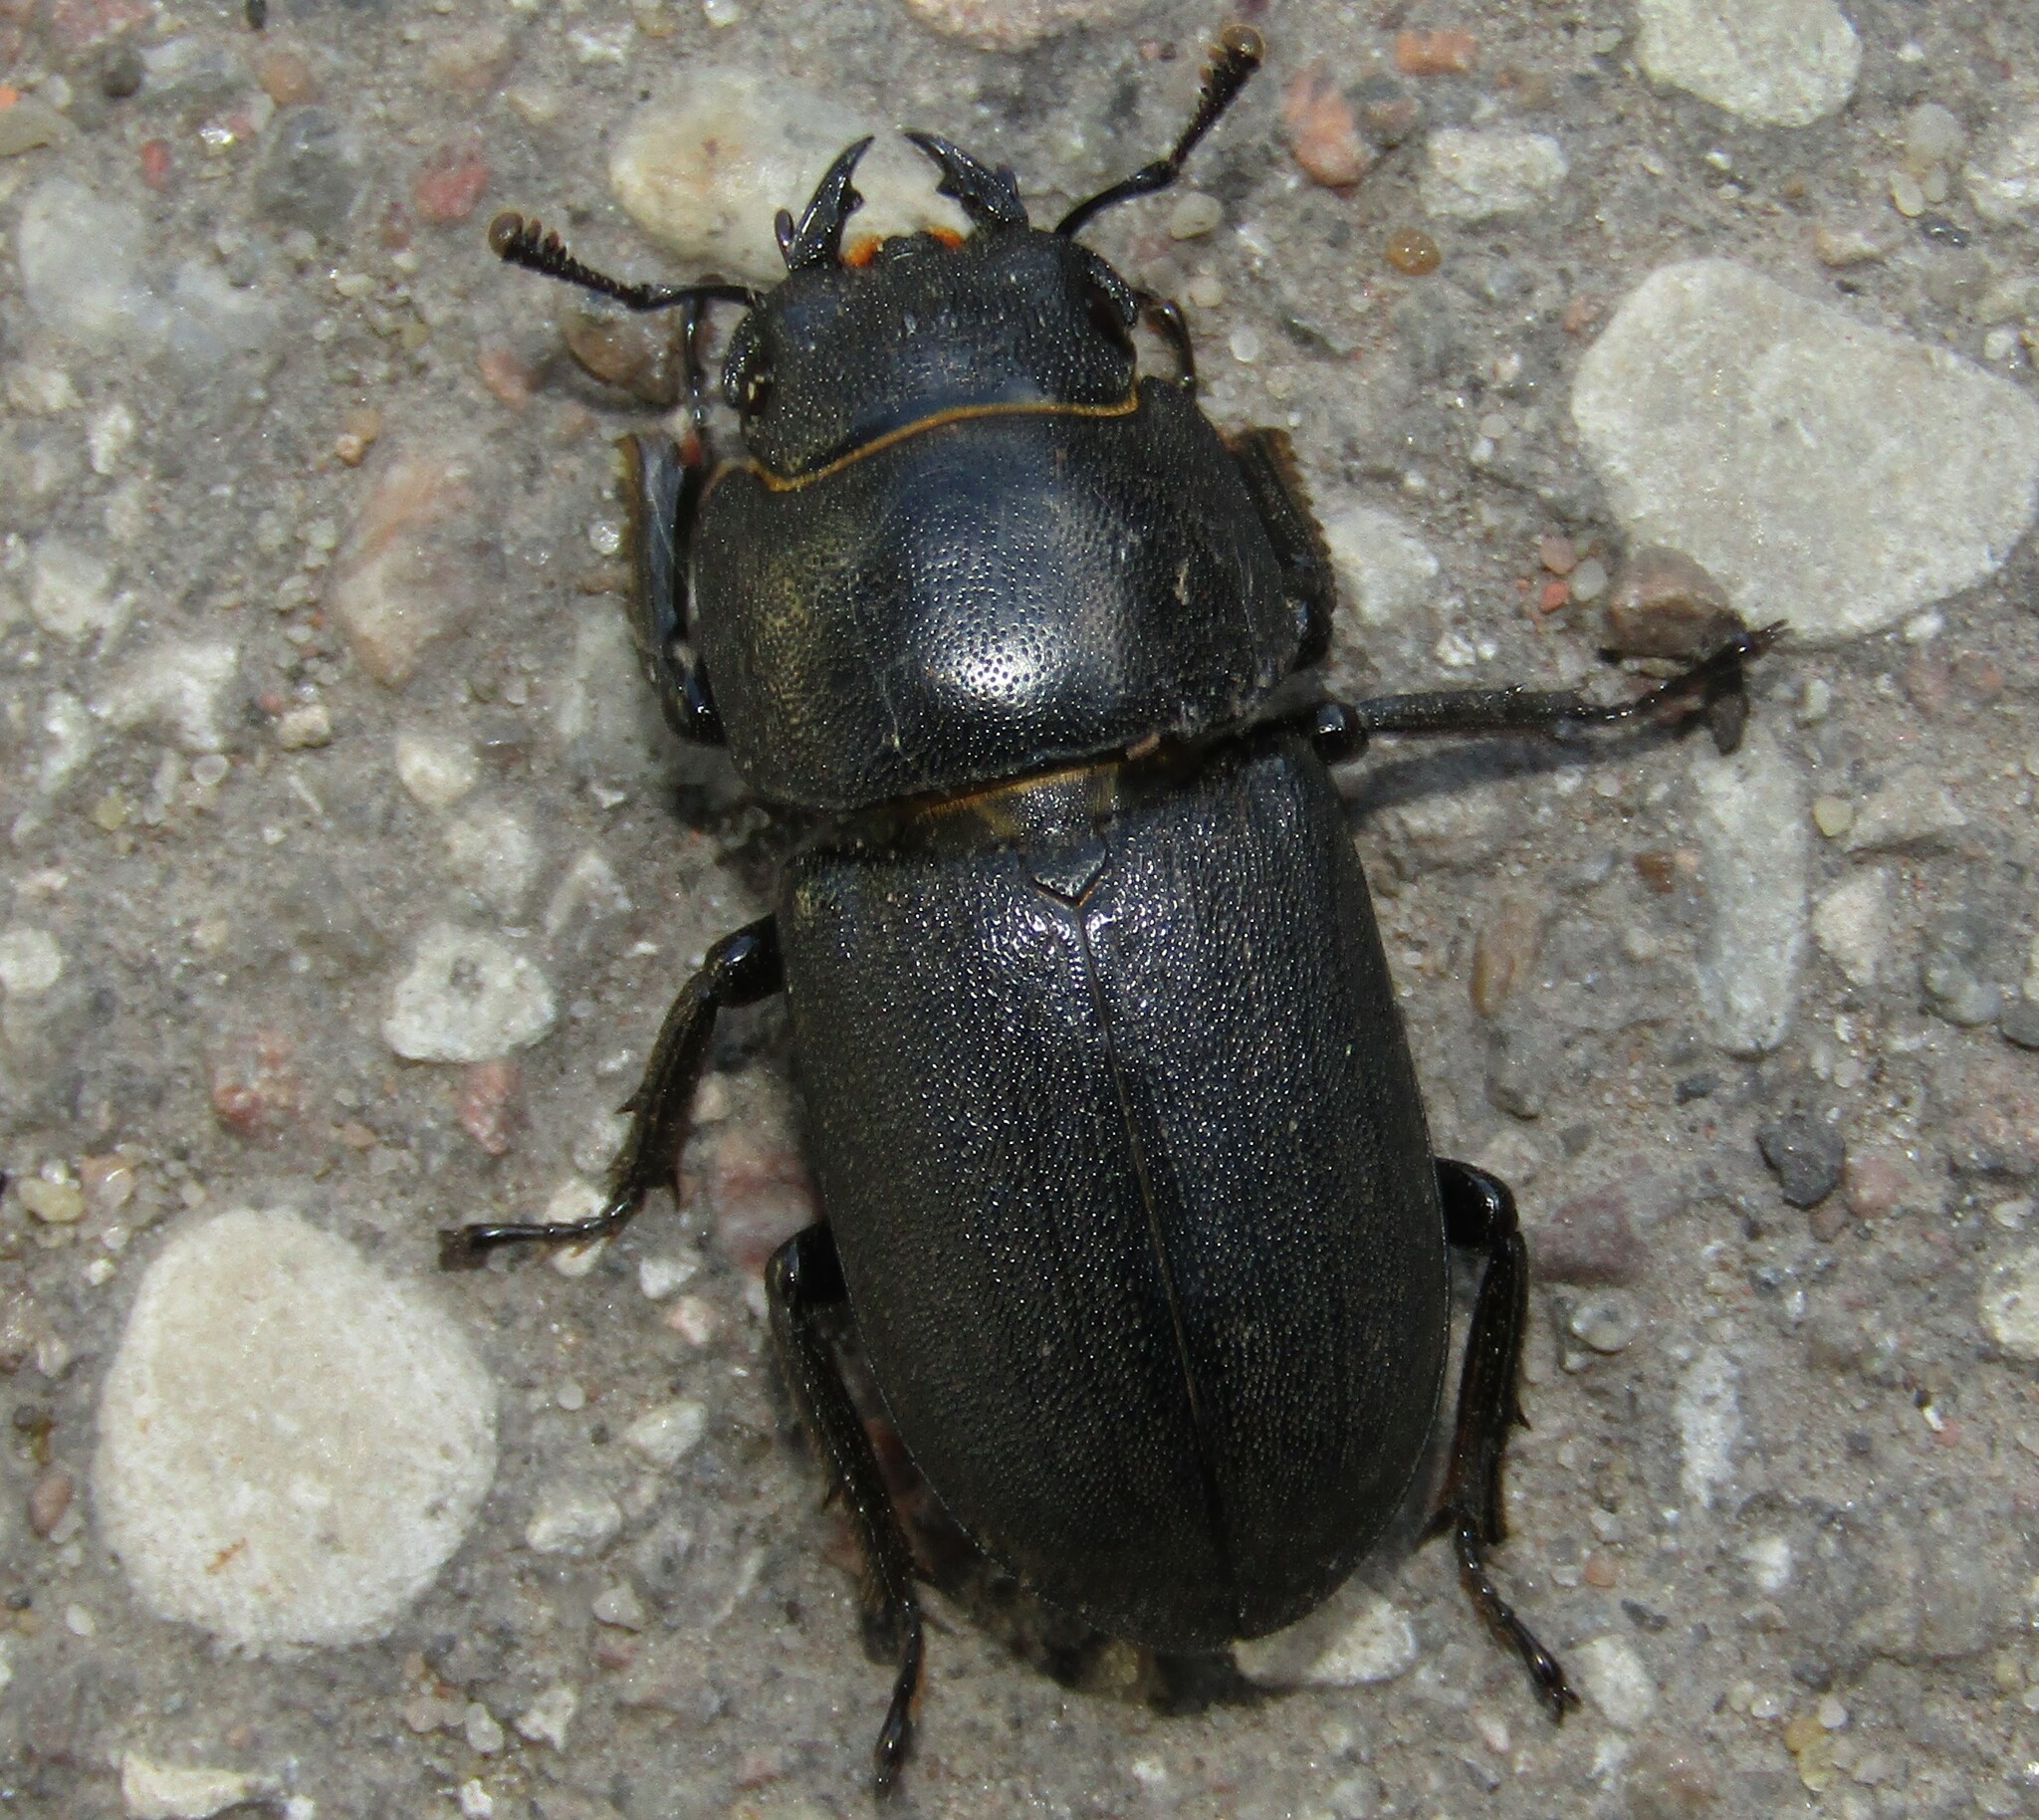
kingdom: Animalia
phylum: Arthropoda
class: Insecta
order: Coleoptera
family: Lucanidae
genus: Dorcus
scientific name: Dorcus parallelipipedus
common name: Lesser stag beetle
